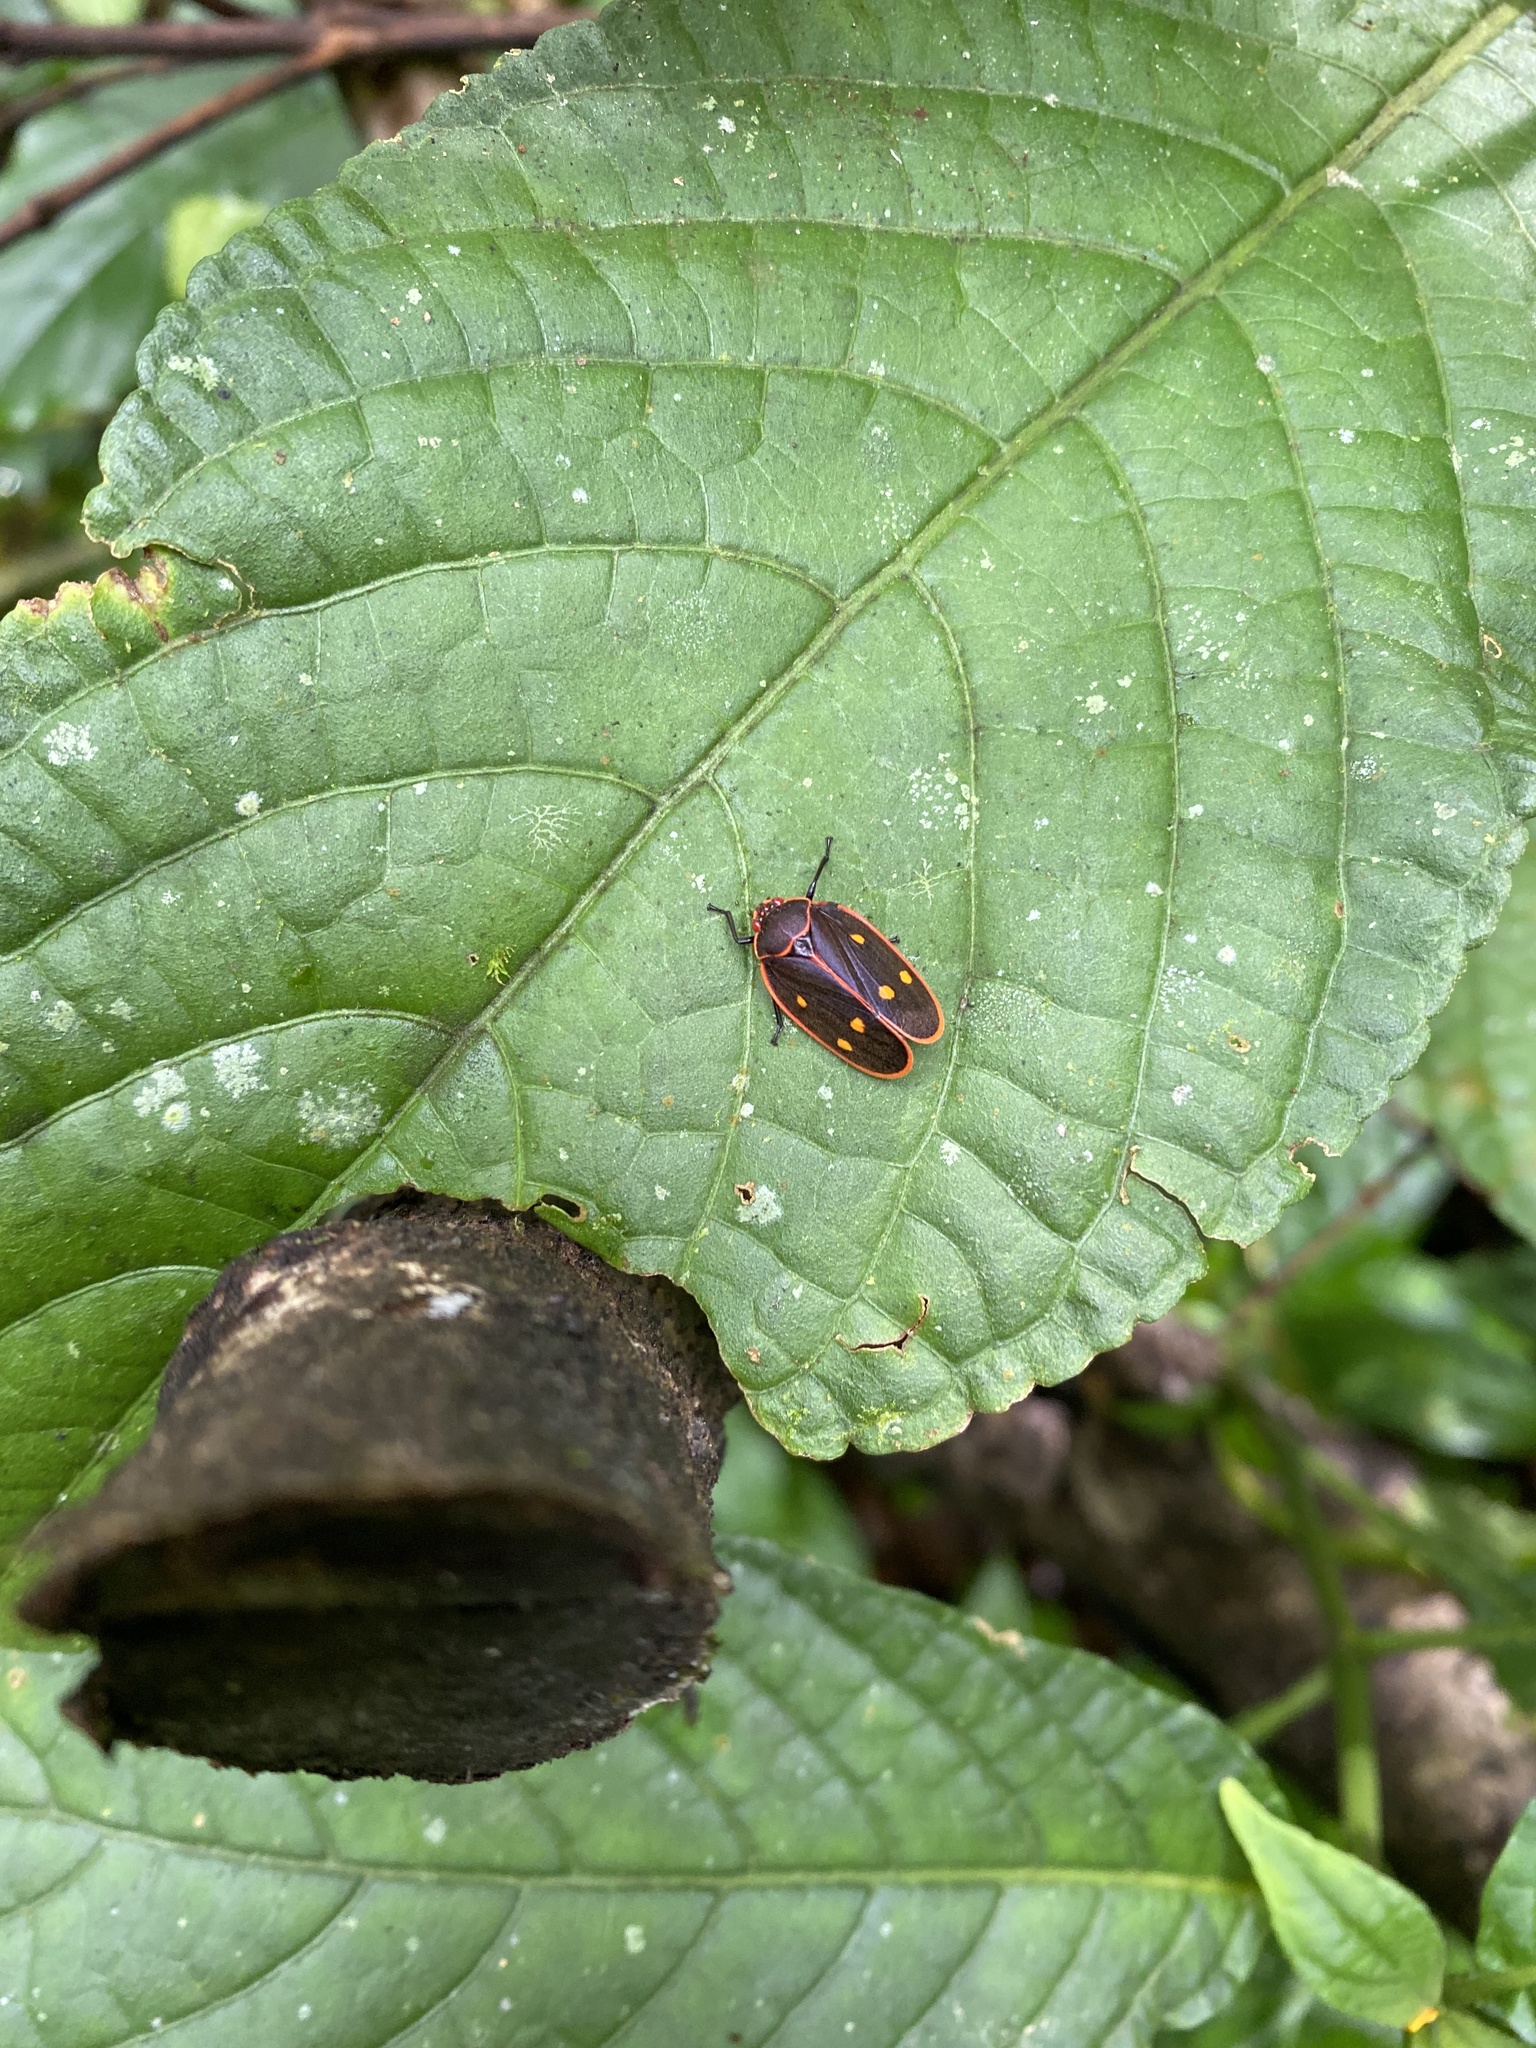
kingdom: Animalia
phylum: Arthropoda
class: Insecta
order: Hemiptera
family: Cercopidae
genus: Iphirhina
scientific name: Iphirhina perfecta
